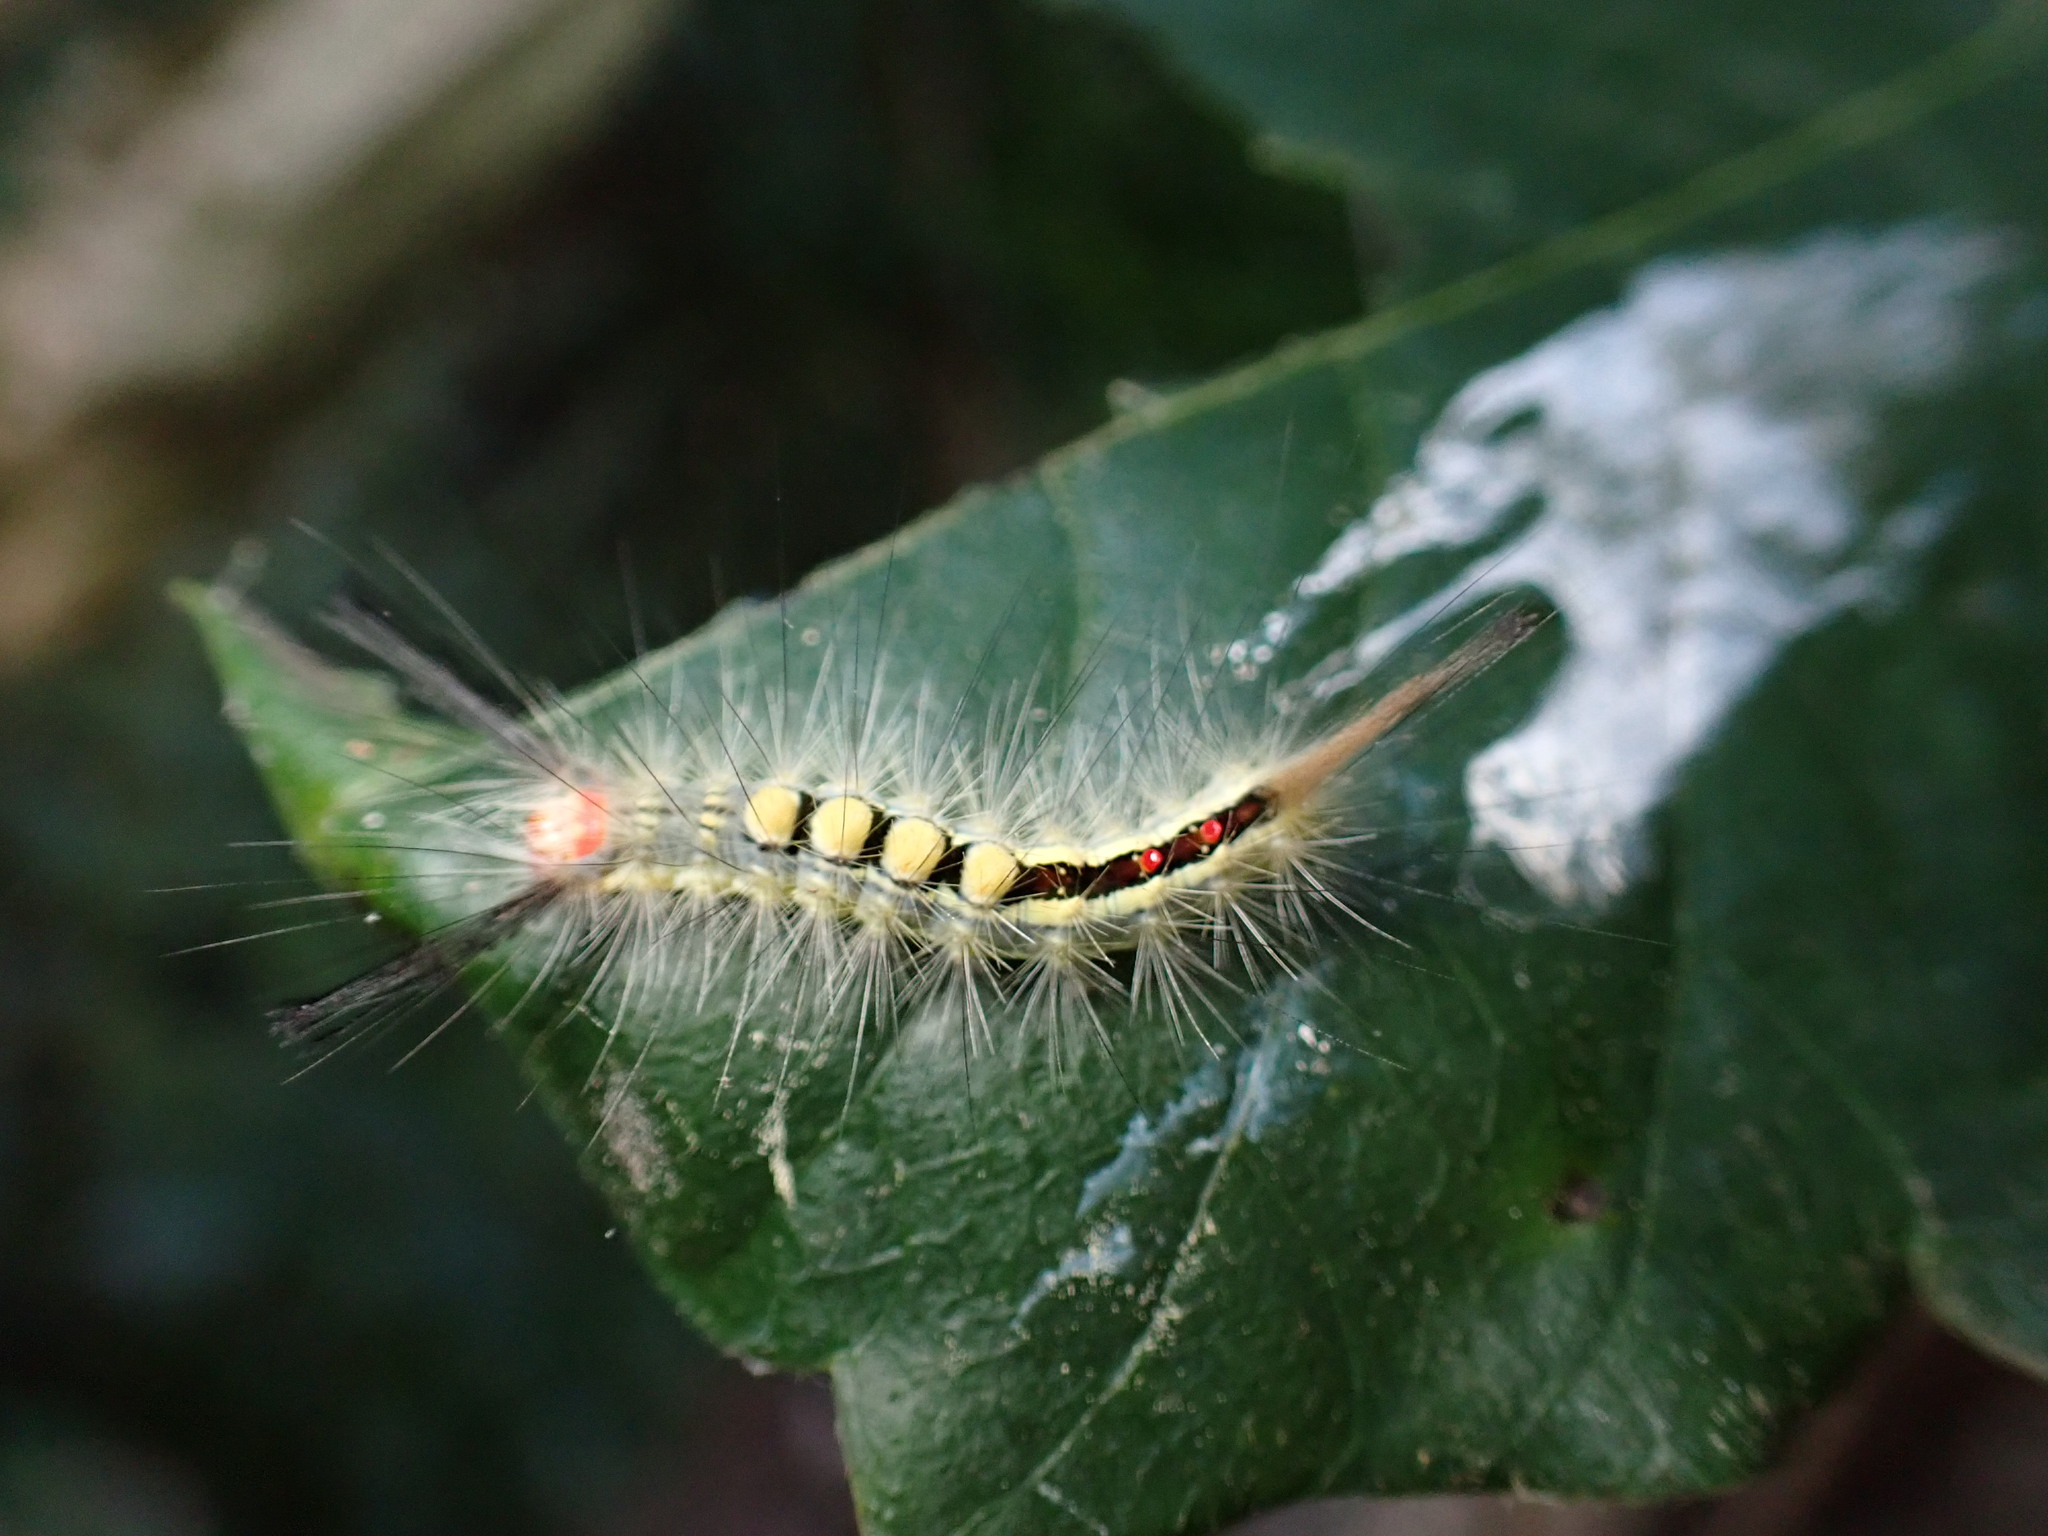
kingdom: Animalia
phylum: Arthropoda
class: Insecta
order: Lepidoptera
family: Erebidae
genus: Orgyia
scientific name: Orgyia leucostigma
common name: White-marked tussock moth
